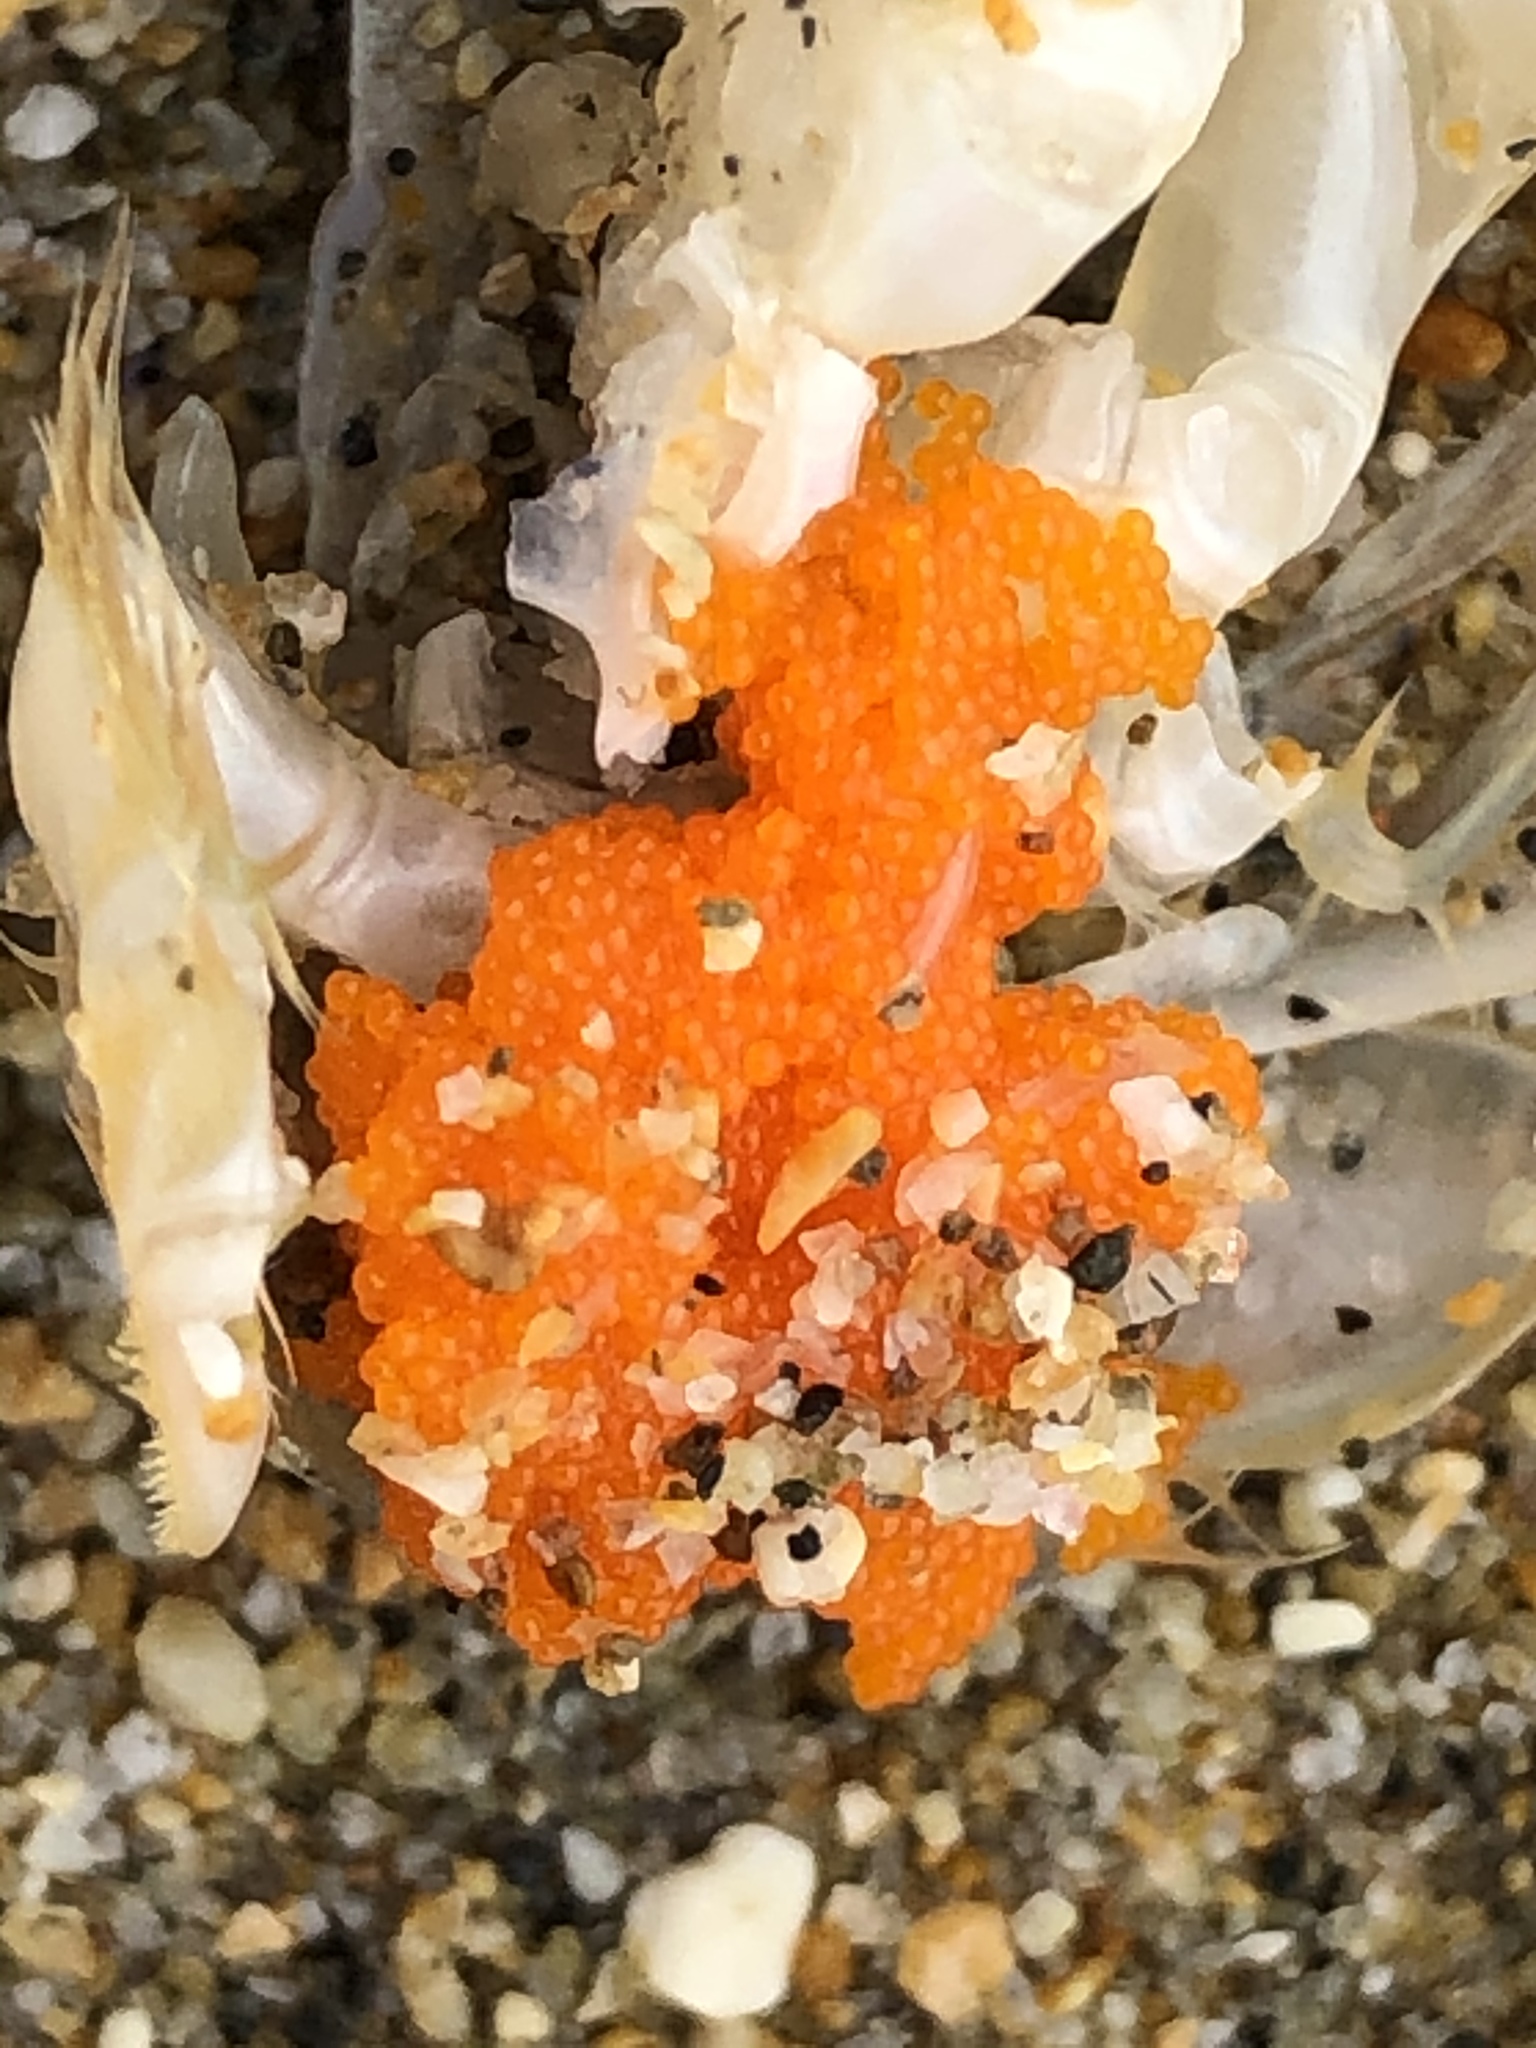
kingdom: Animalia
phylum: Arthropoda
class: Malacostraca
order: Decapoda
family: Hippidae
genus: Emerita
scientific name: Emerita analoga
